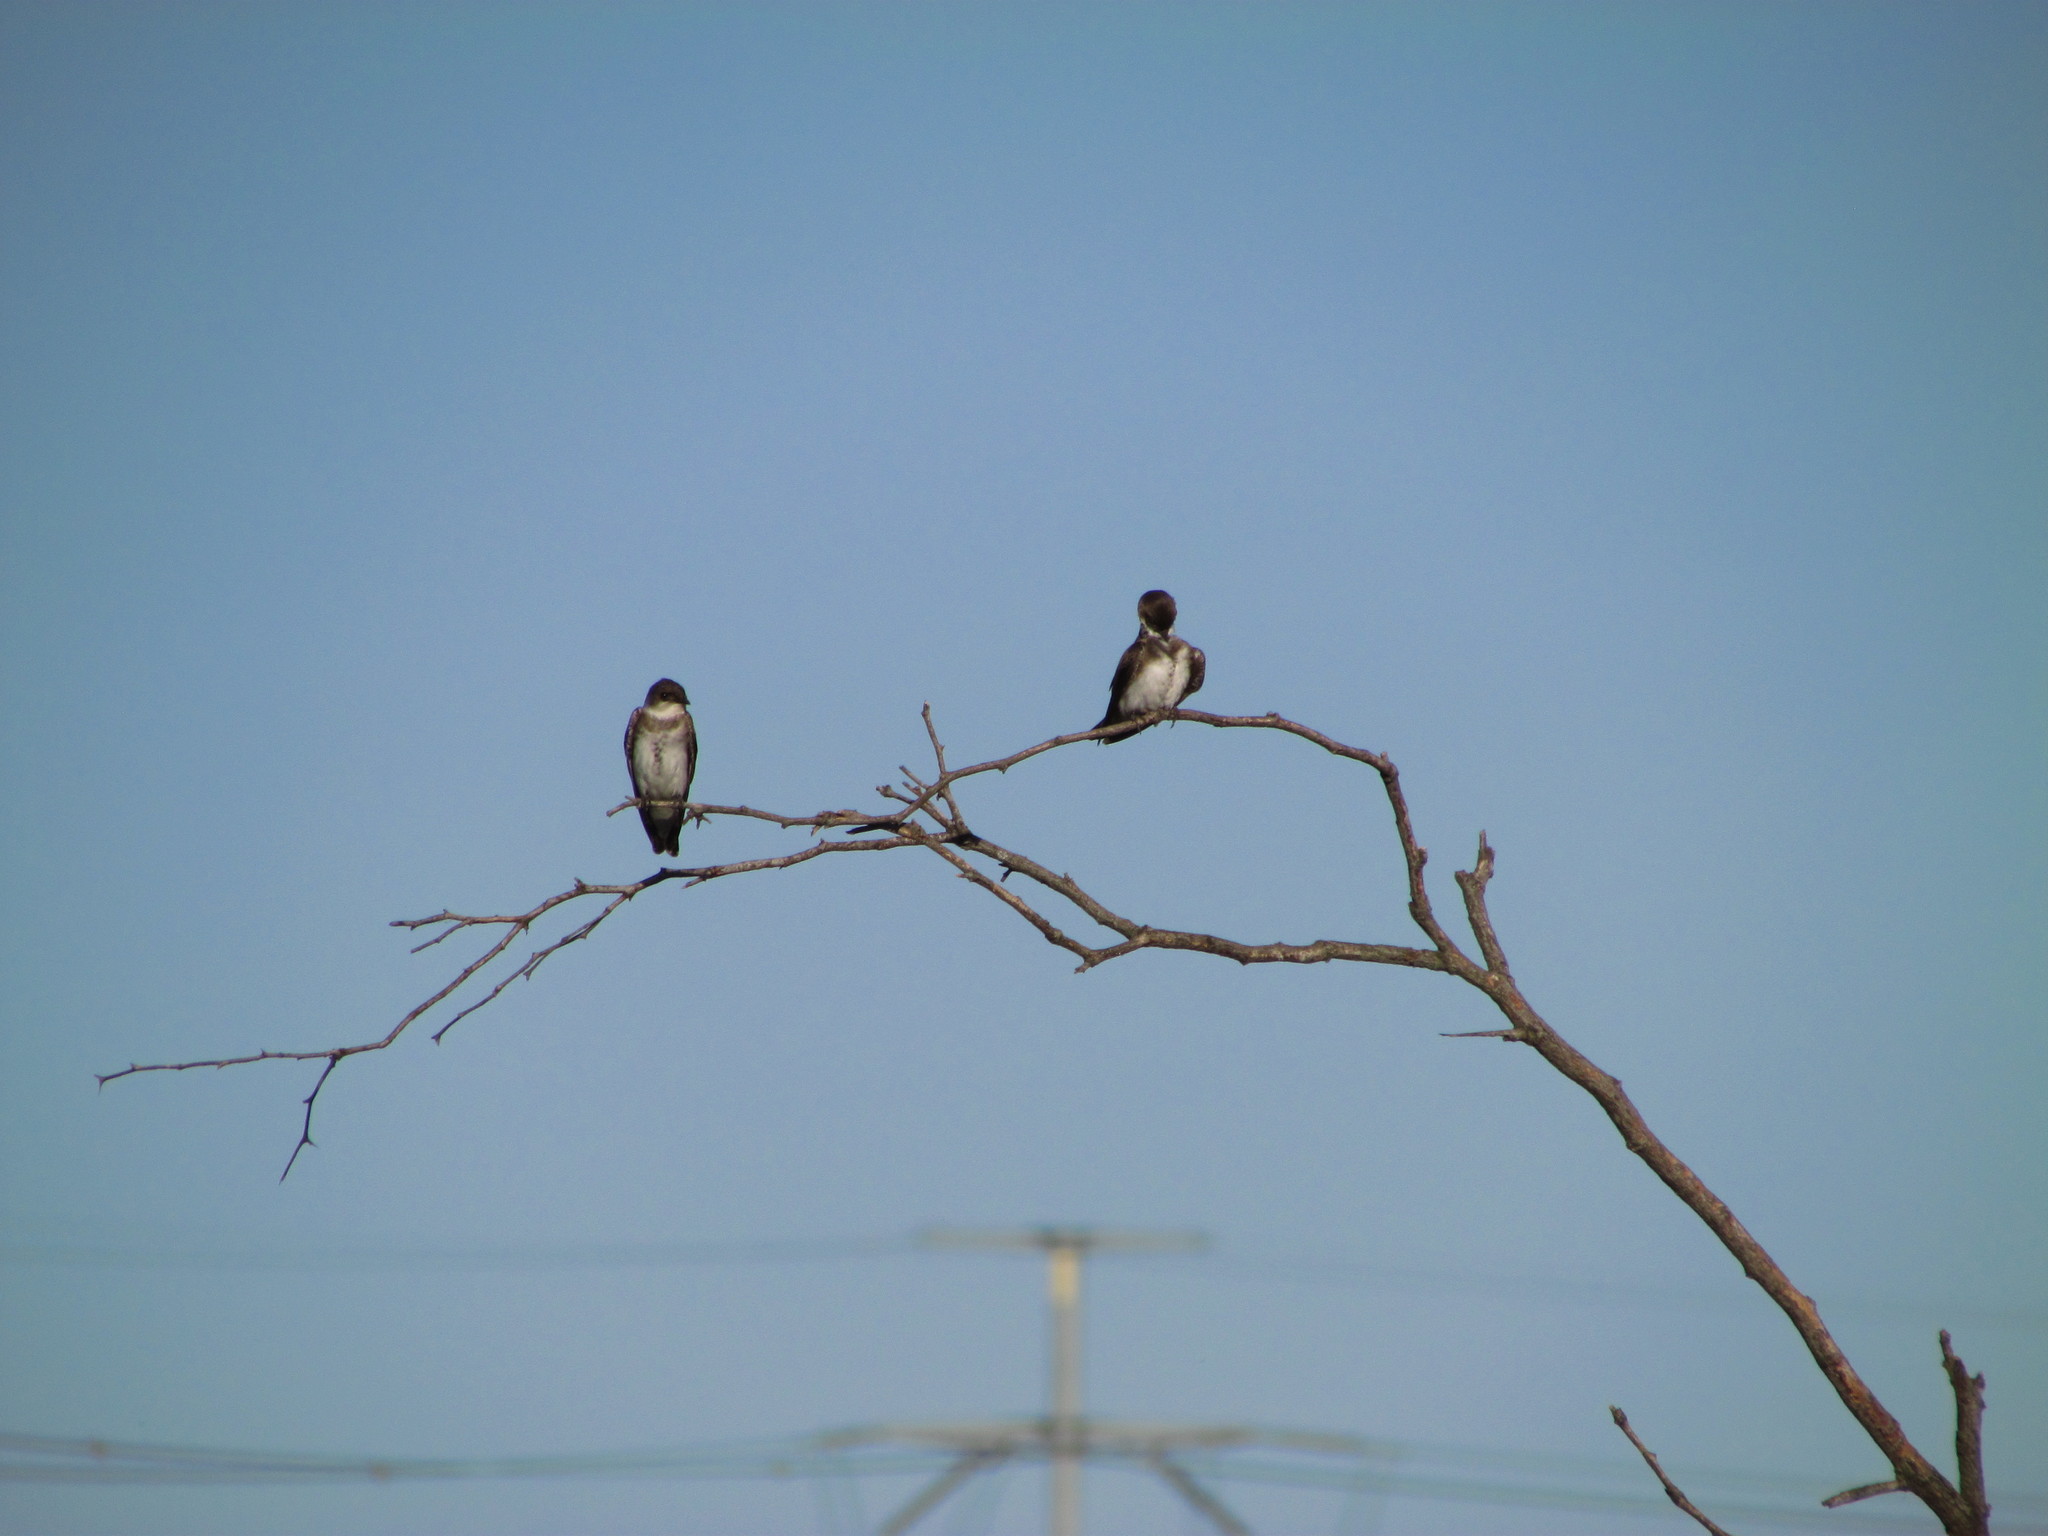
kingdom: Animalia
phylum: Chordata
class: Aves
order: Passeriformes
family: Hirundinidae
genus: Progne
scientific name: Progne tapera
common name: Brown-chested martin
